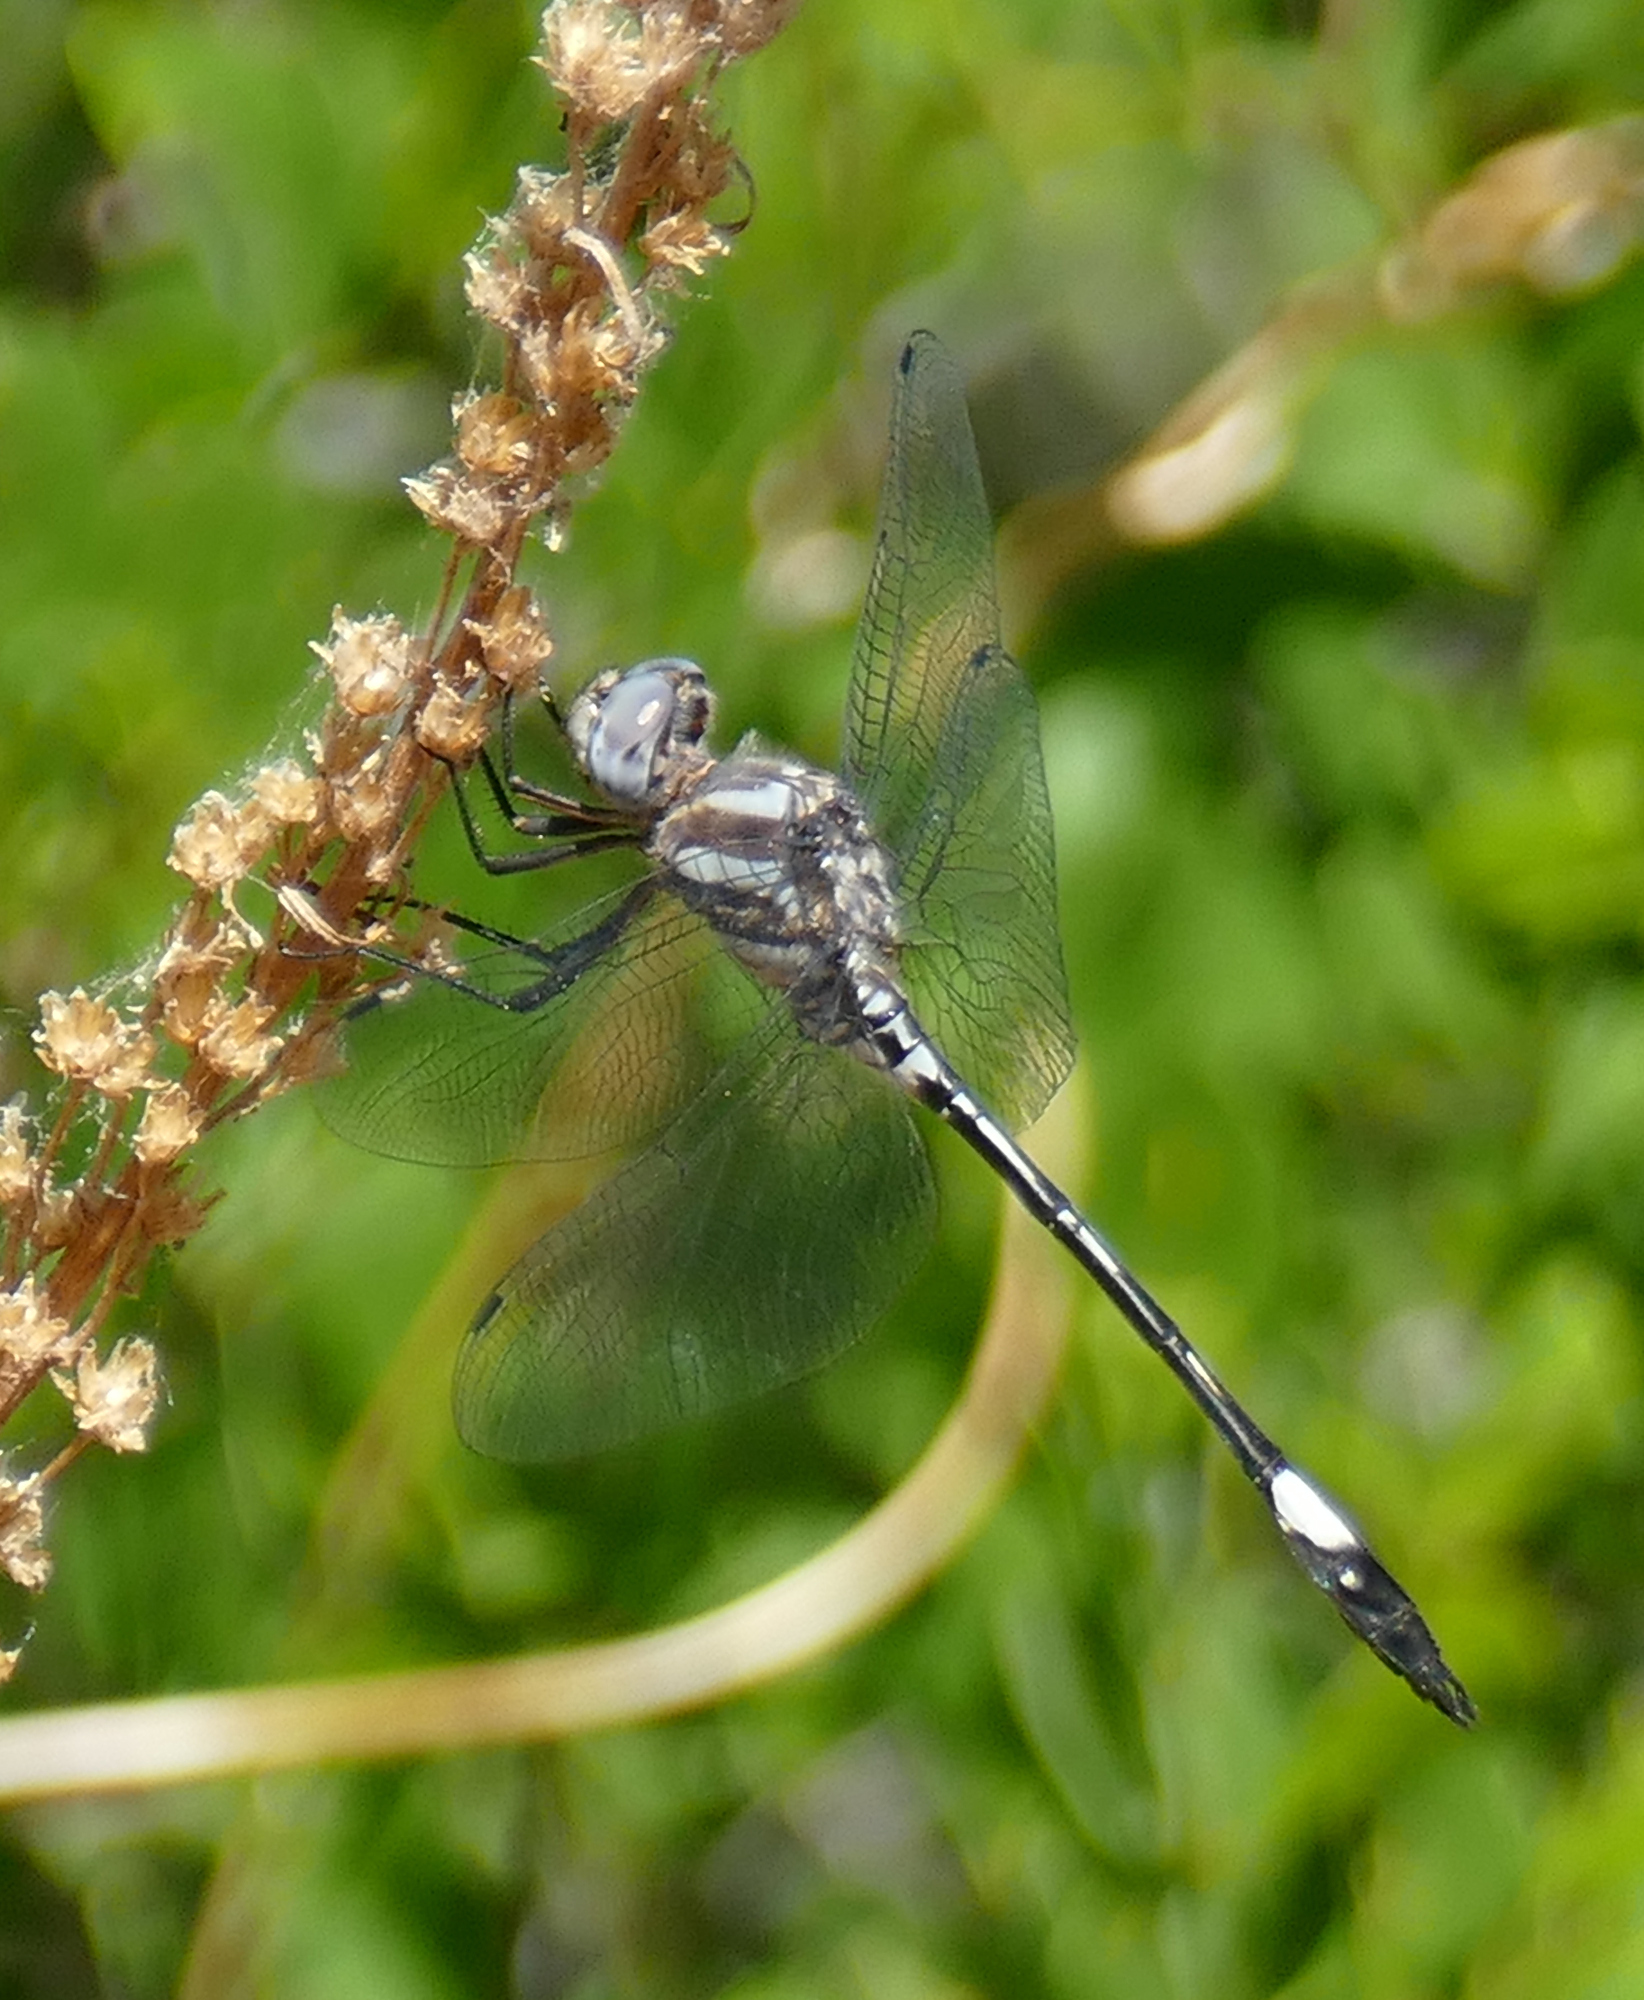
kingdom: Animalia
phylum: Arthropoda
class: Insecta
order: Odonata
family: Libellulidae
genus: Brechmorhoga
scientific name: Brechmorhoga mendax
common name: Pale-faced clubskimmer
